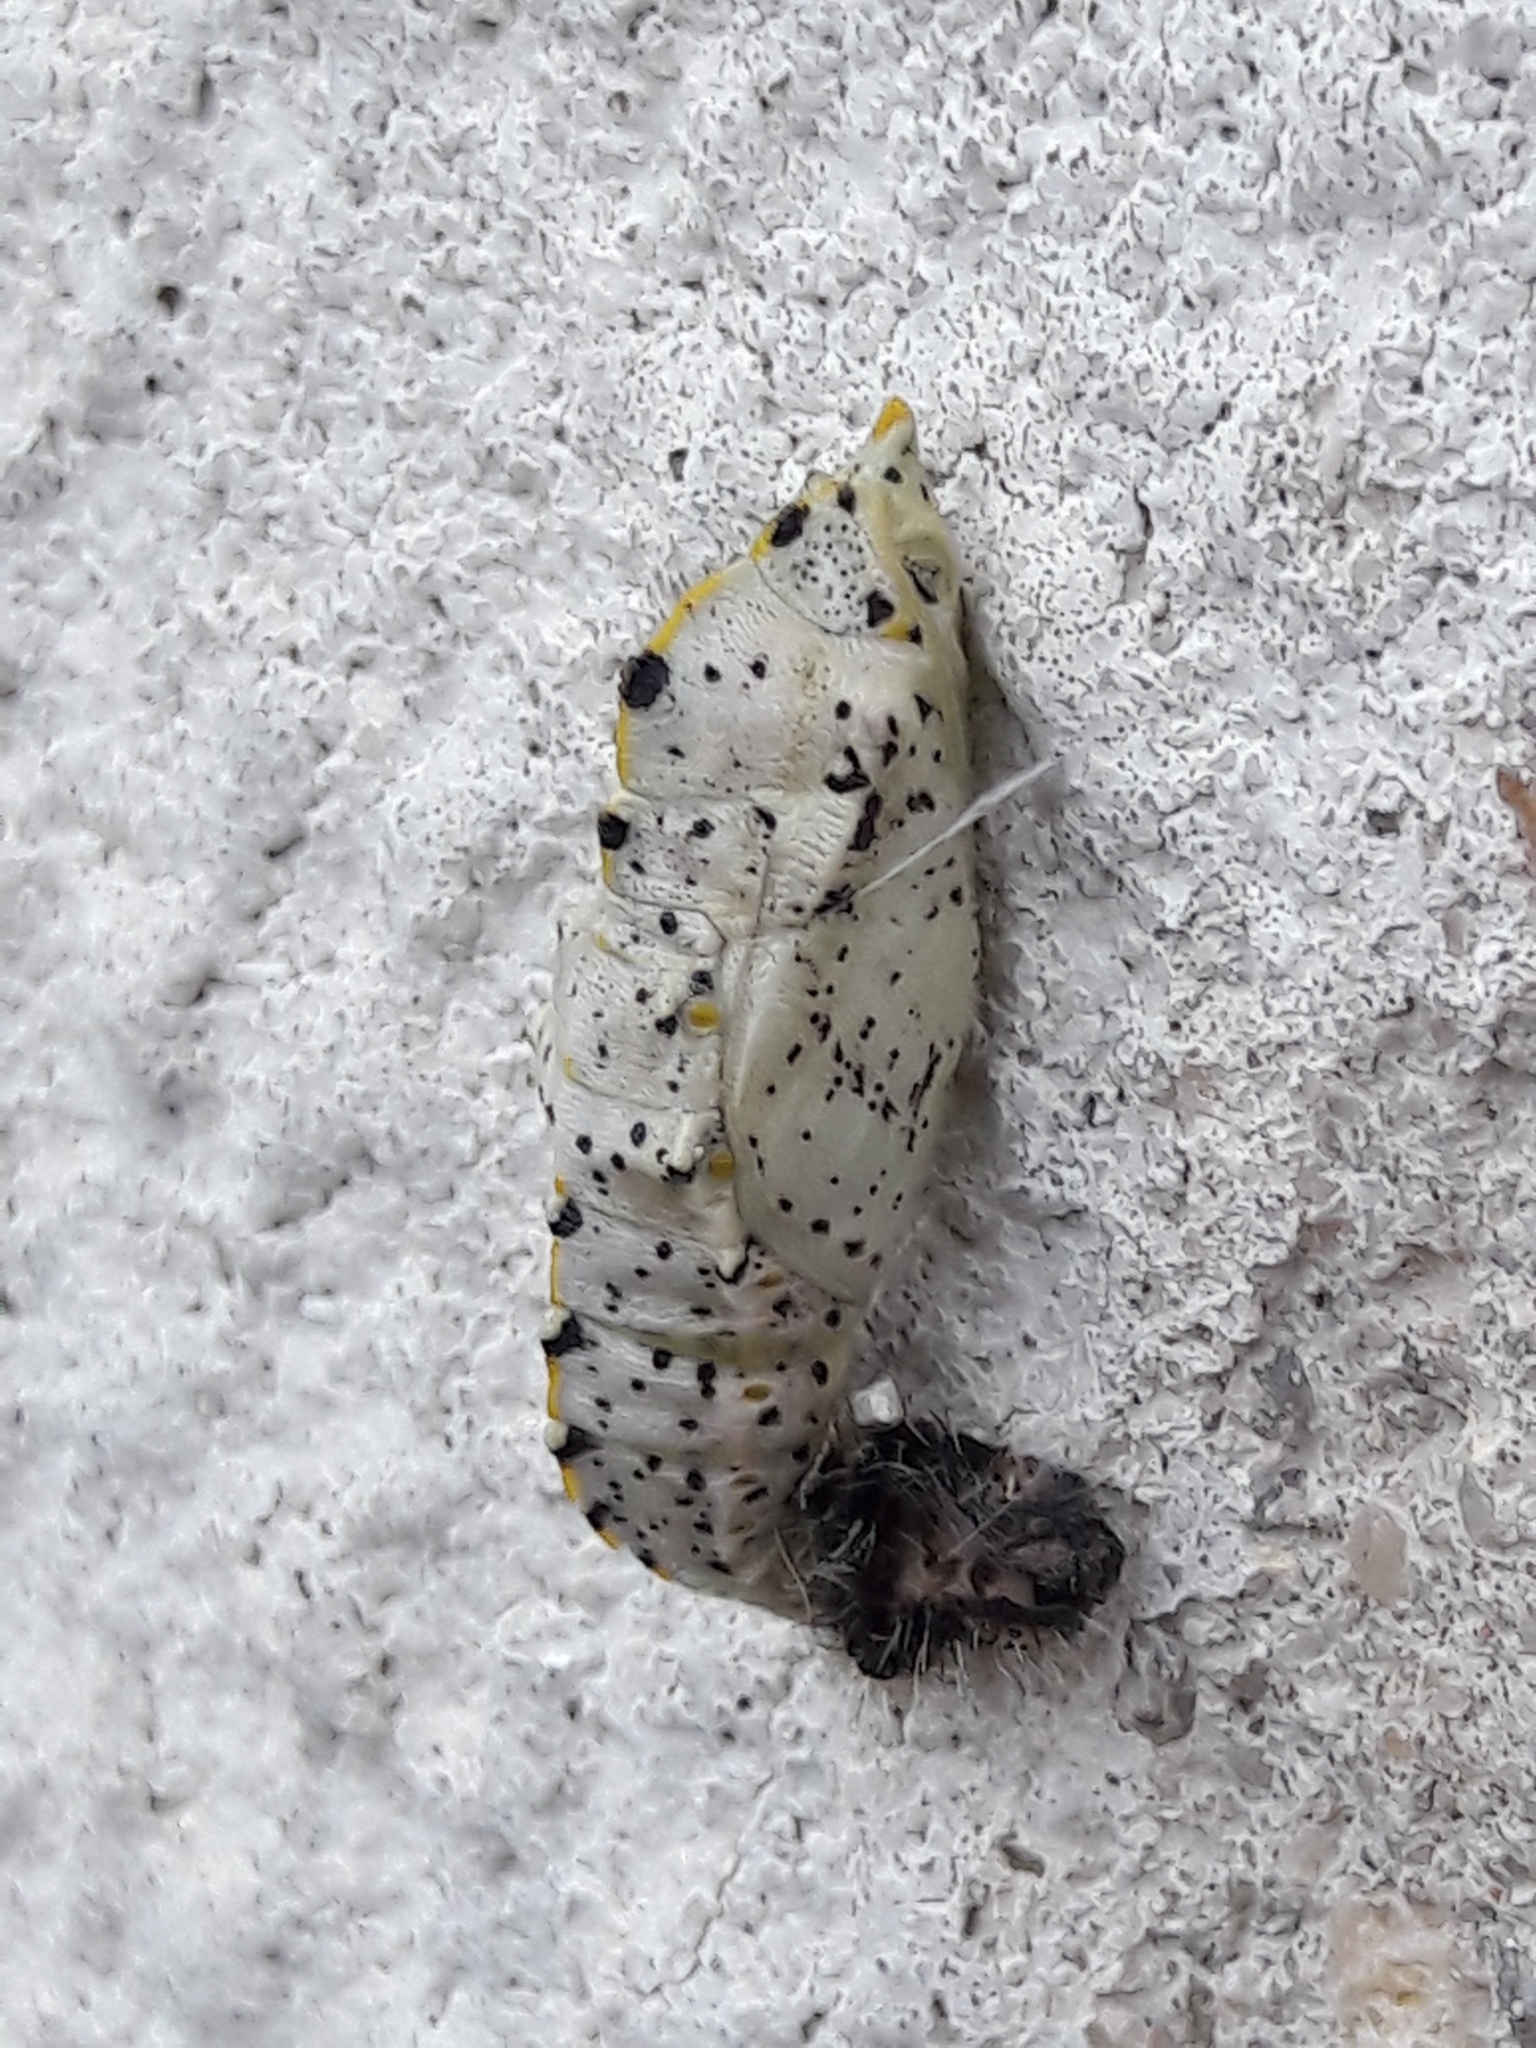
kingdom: Animalia
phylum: Arthropoda
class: Insecta
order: Lepidoptera
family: Pieridae
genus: Pieris
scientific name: Pieris brassicae
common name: Large white
